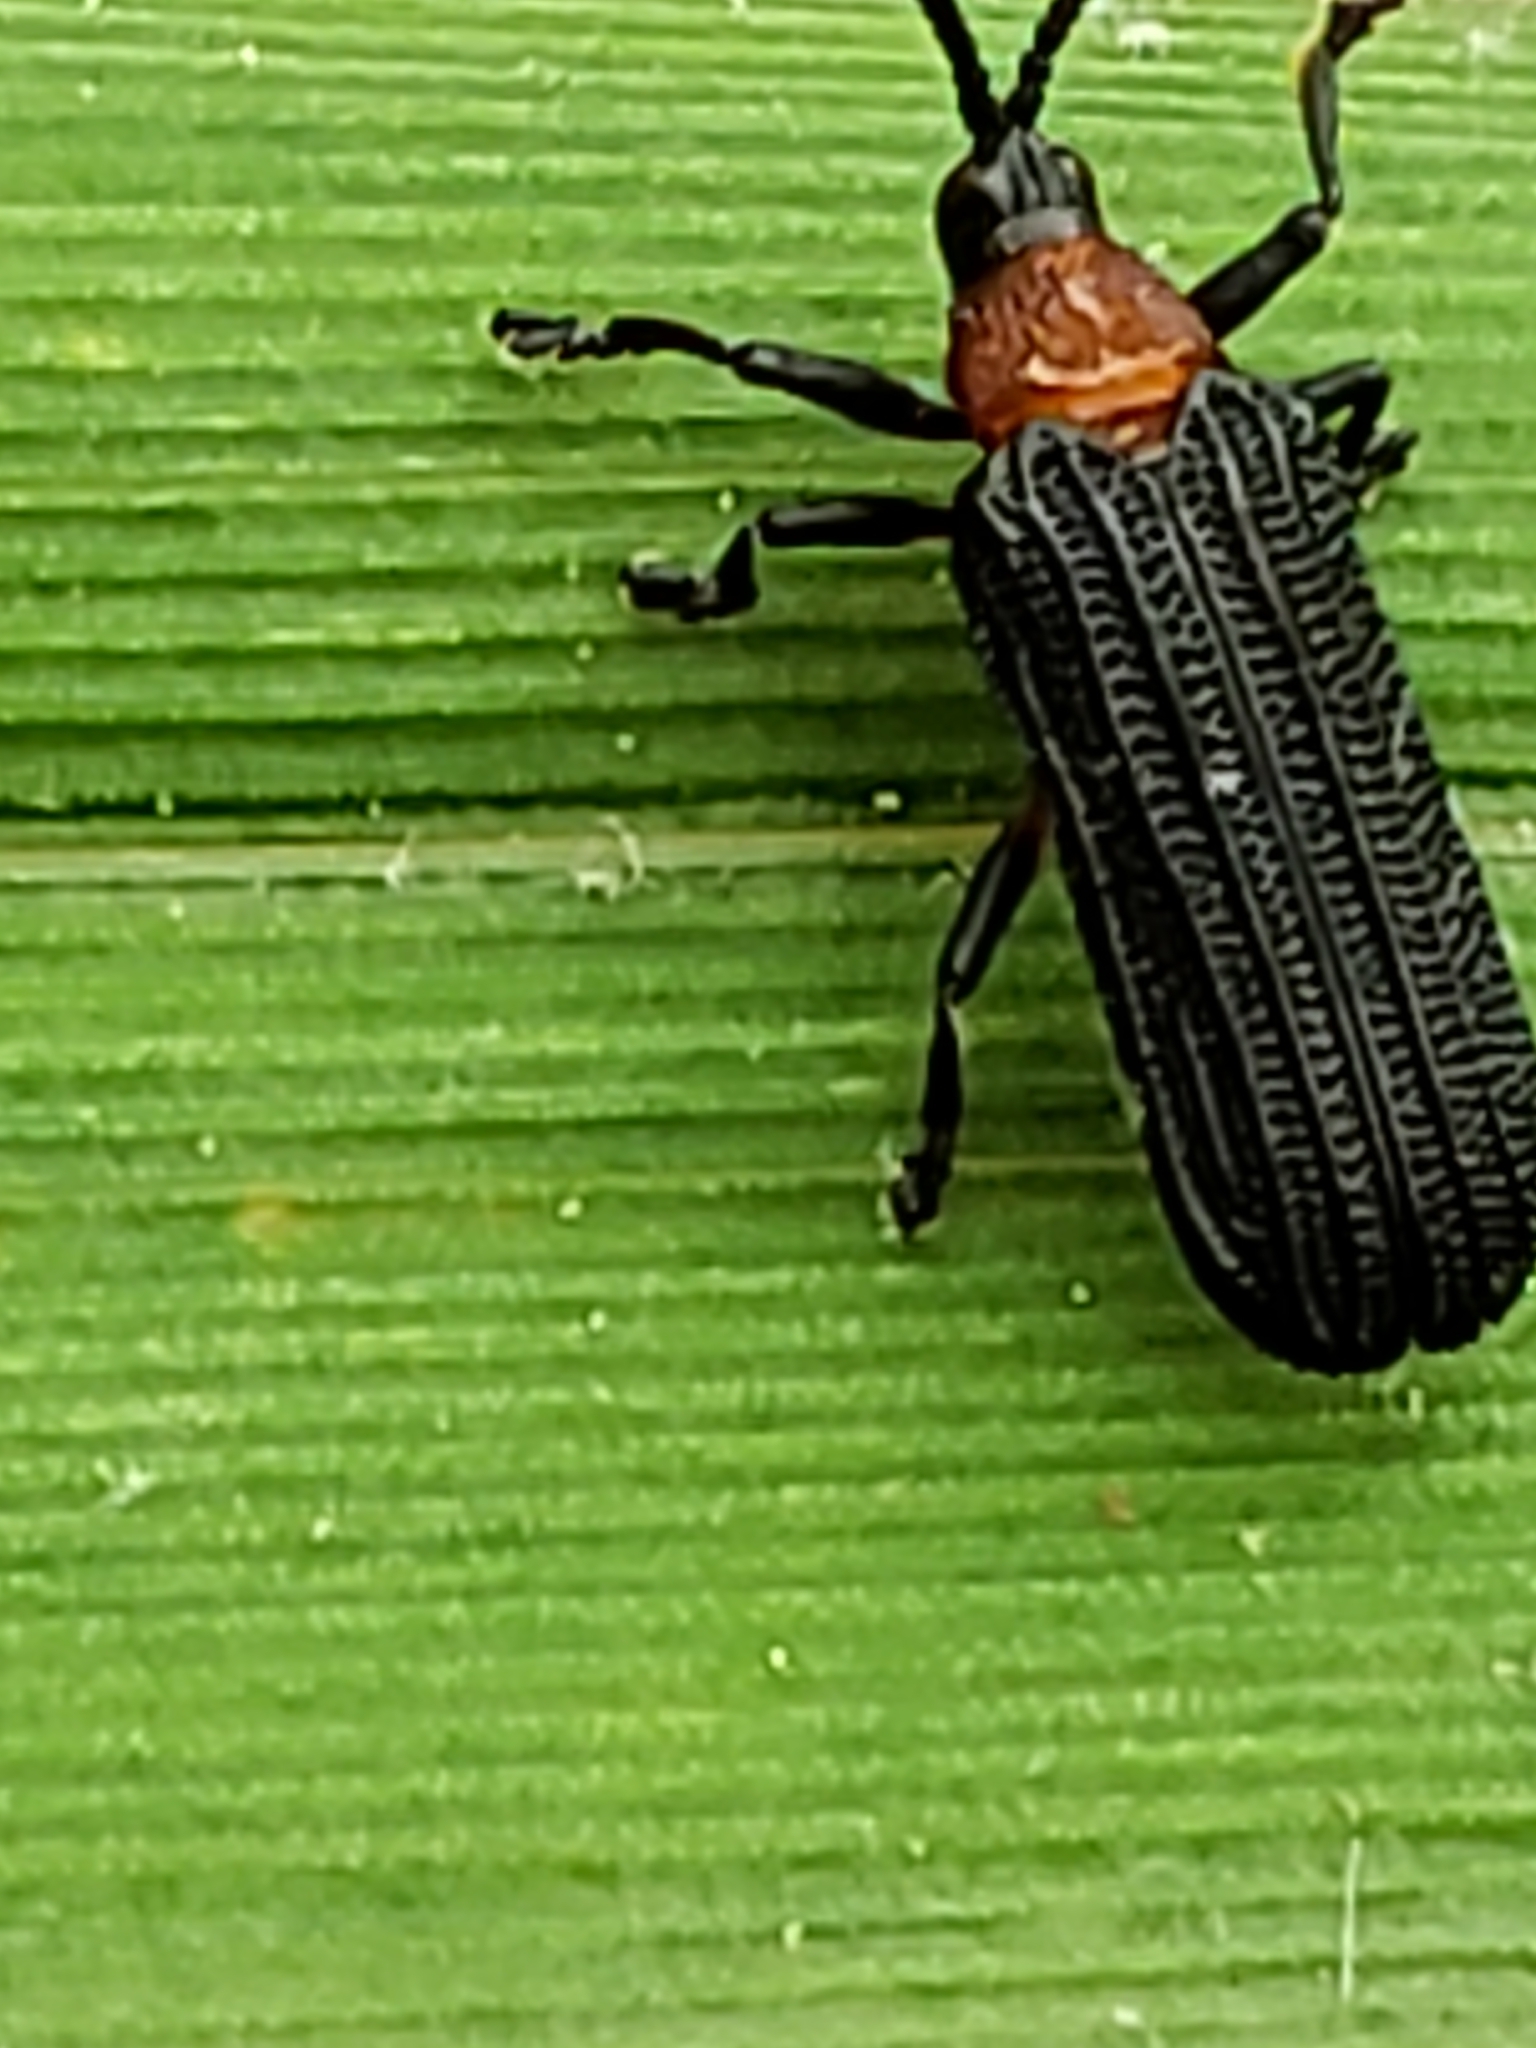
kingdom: Animalia
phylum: Arthropoda
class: Insecta
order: Coleoptera
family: Chrysomelidae
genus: Chalepus
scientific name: Chalepus bicolor
